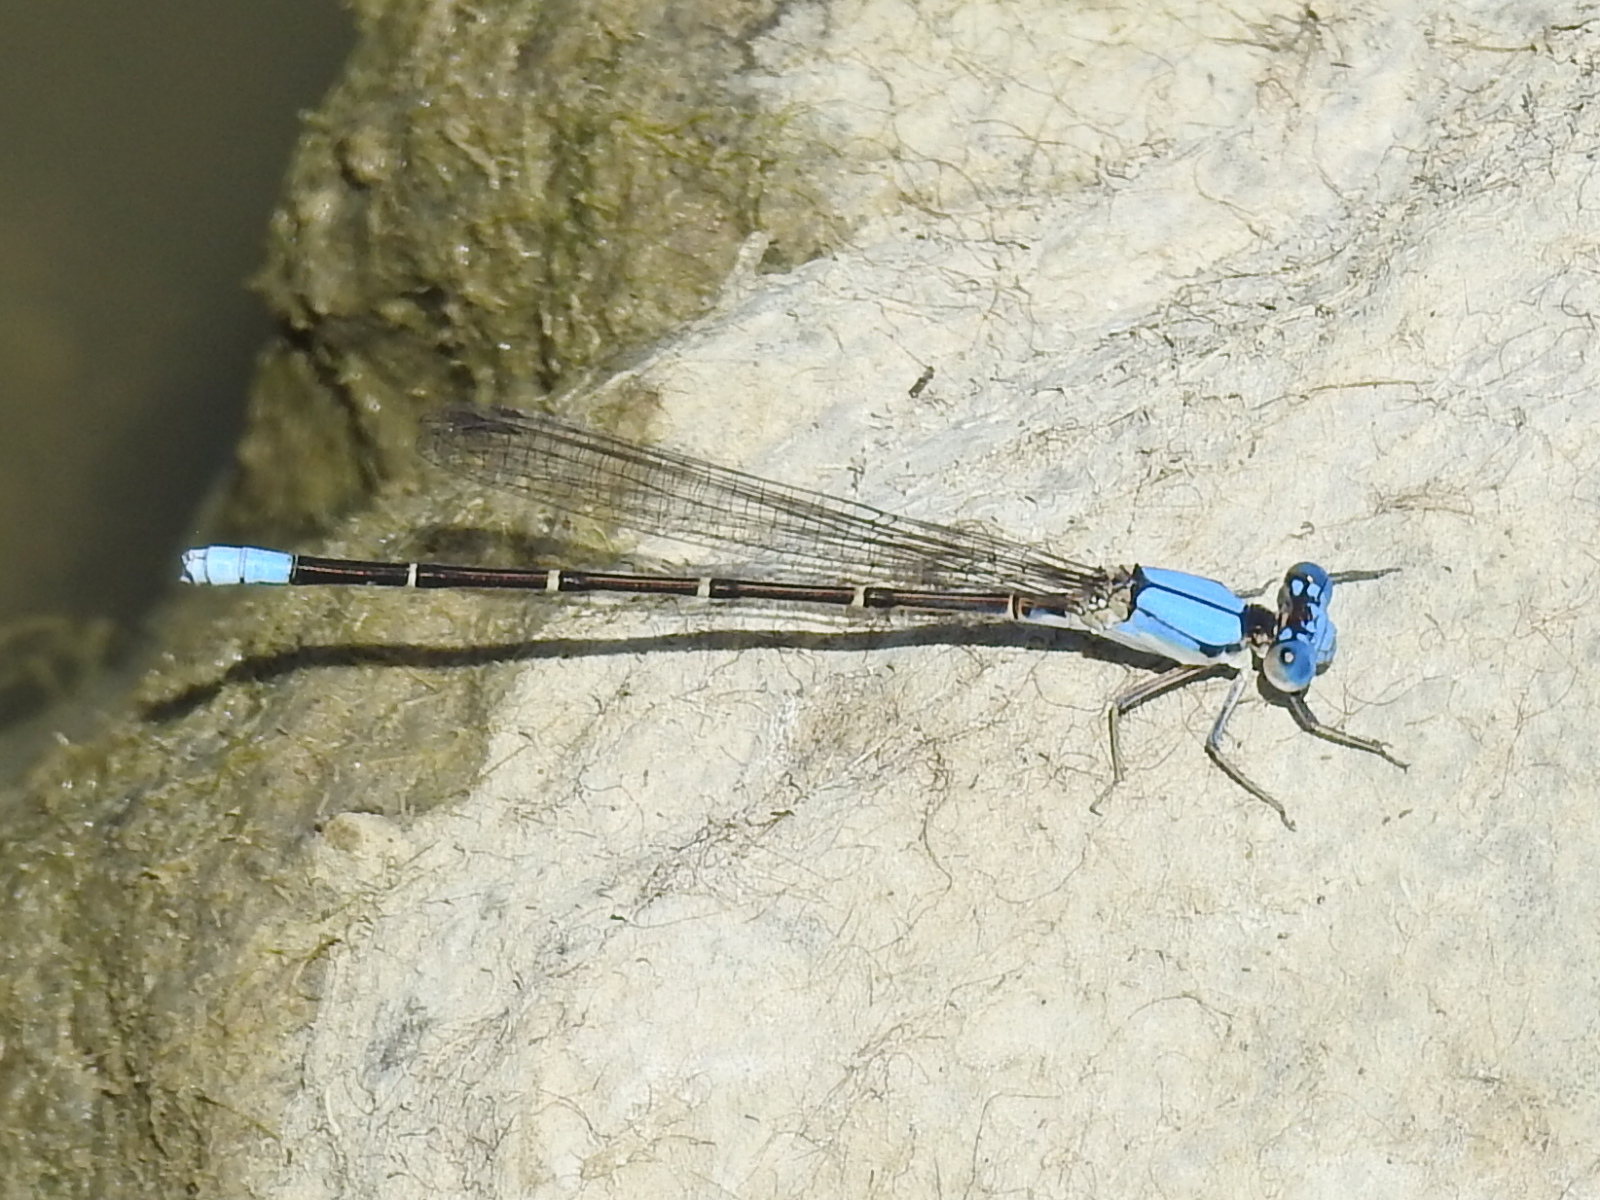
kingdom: Animalia
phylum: Arthropoda
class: Insecta
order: Odonata
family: Coenagrionidae
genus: Argia
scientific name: Argia apicalis
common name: Blue-fronted dancer
